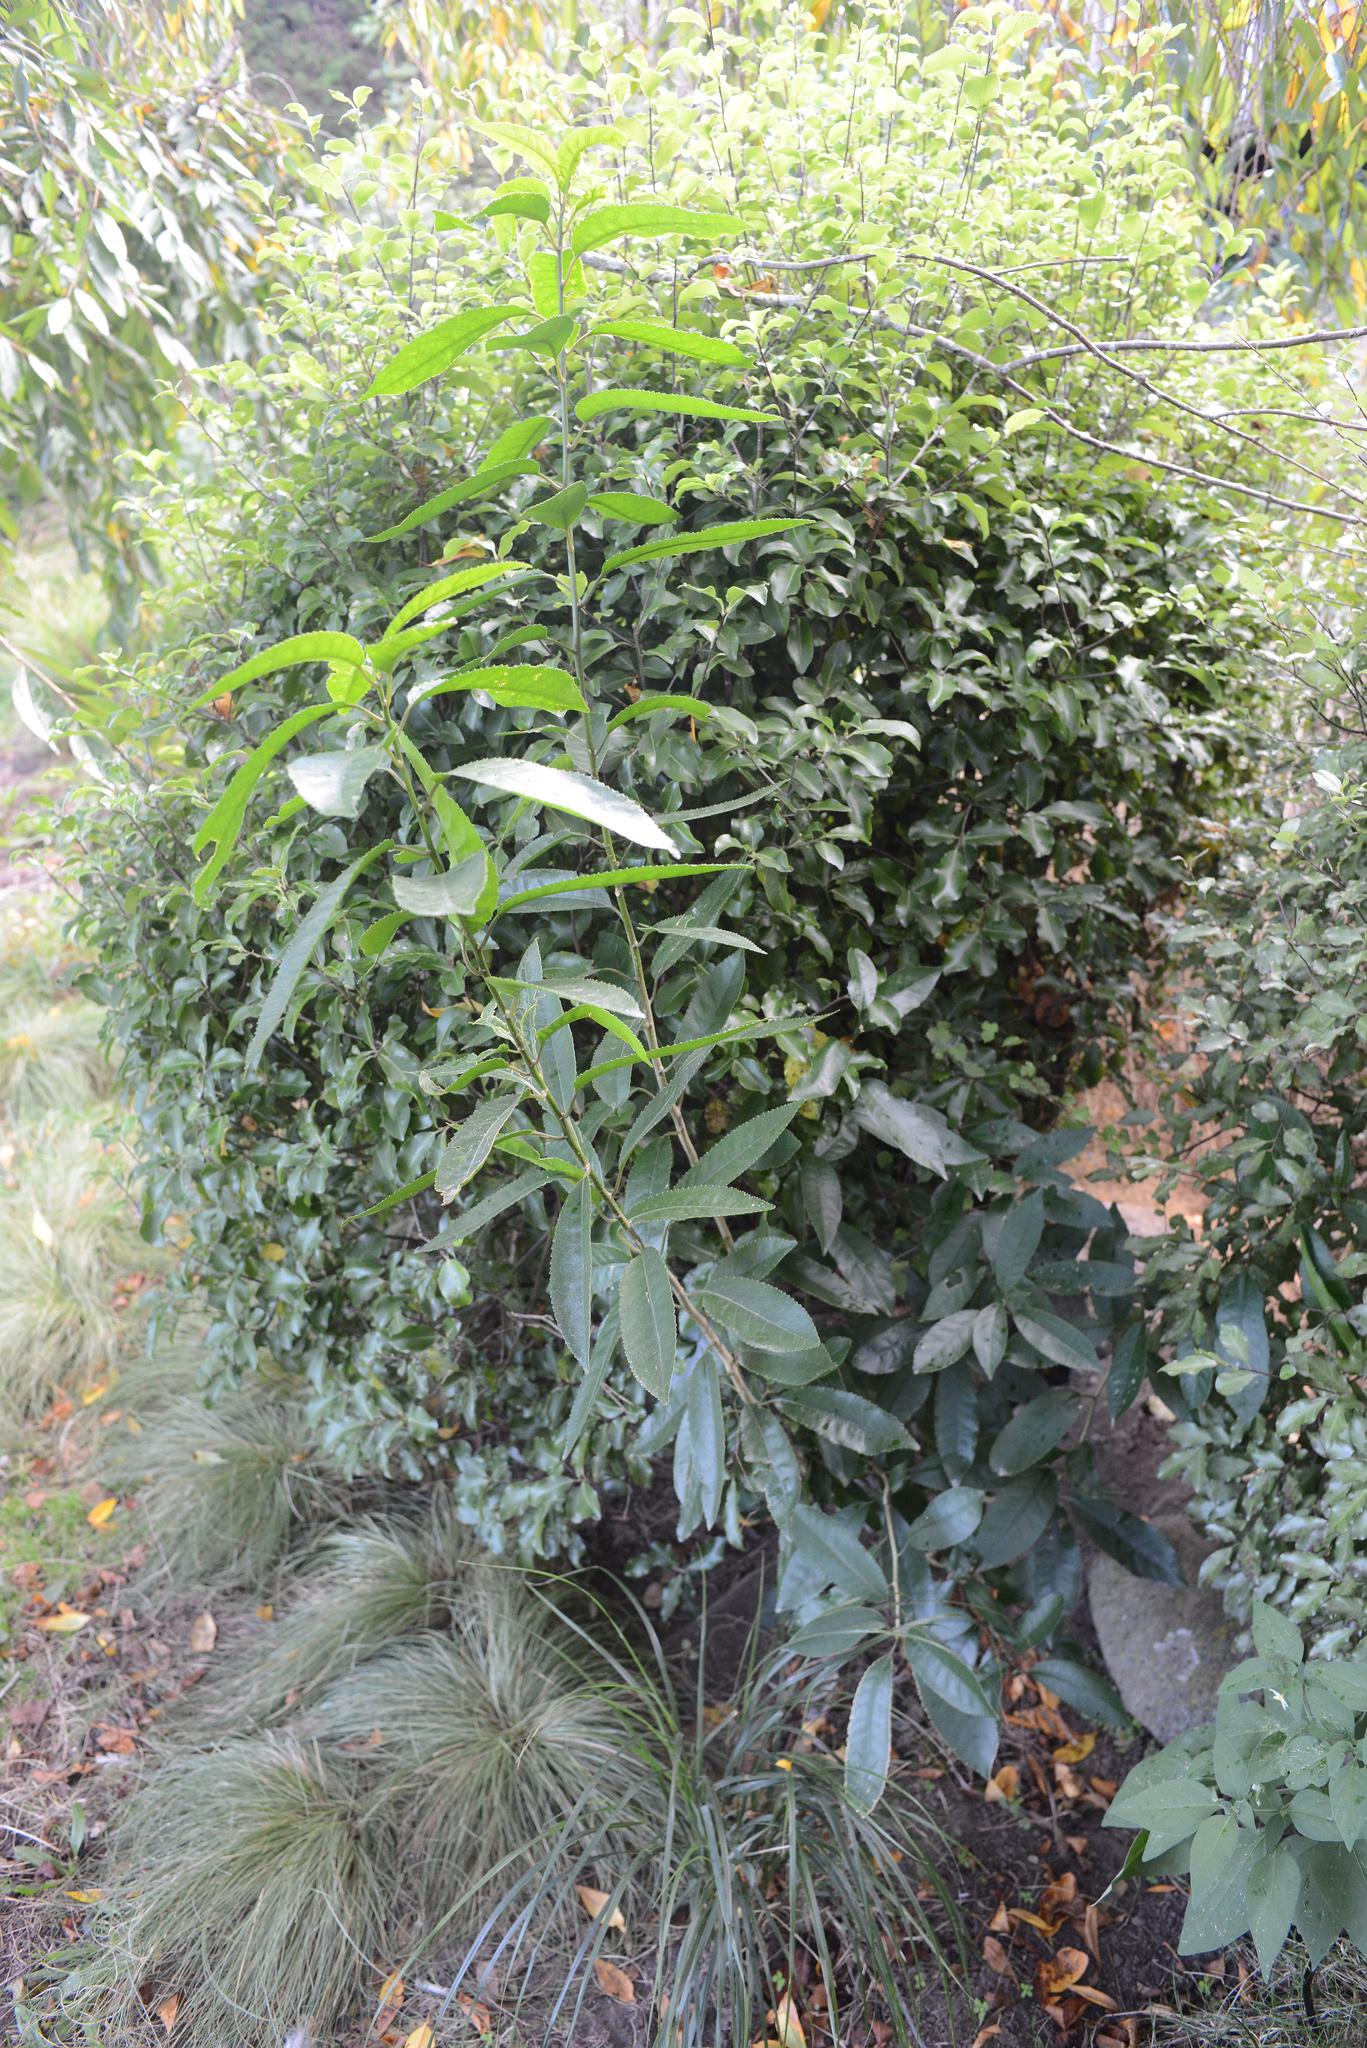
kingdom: Plantae
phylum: Tracheophyta
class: Magnoliopsida
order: Malpighiales
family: Violaceae
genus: Melicytus
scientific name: Melicytus ramiflorus
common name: Mahoe
